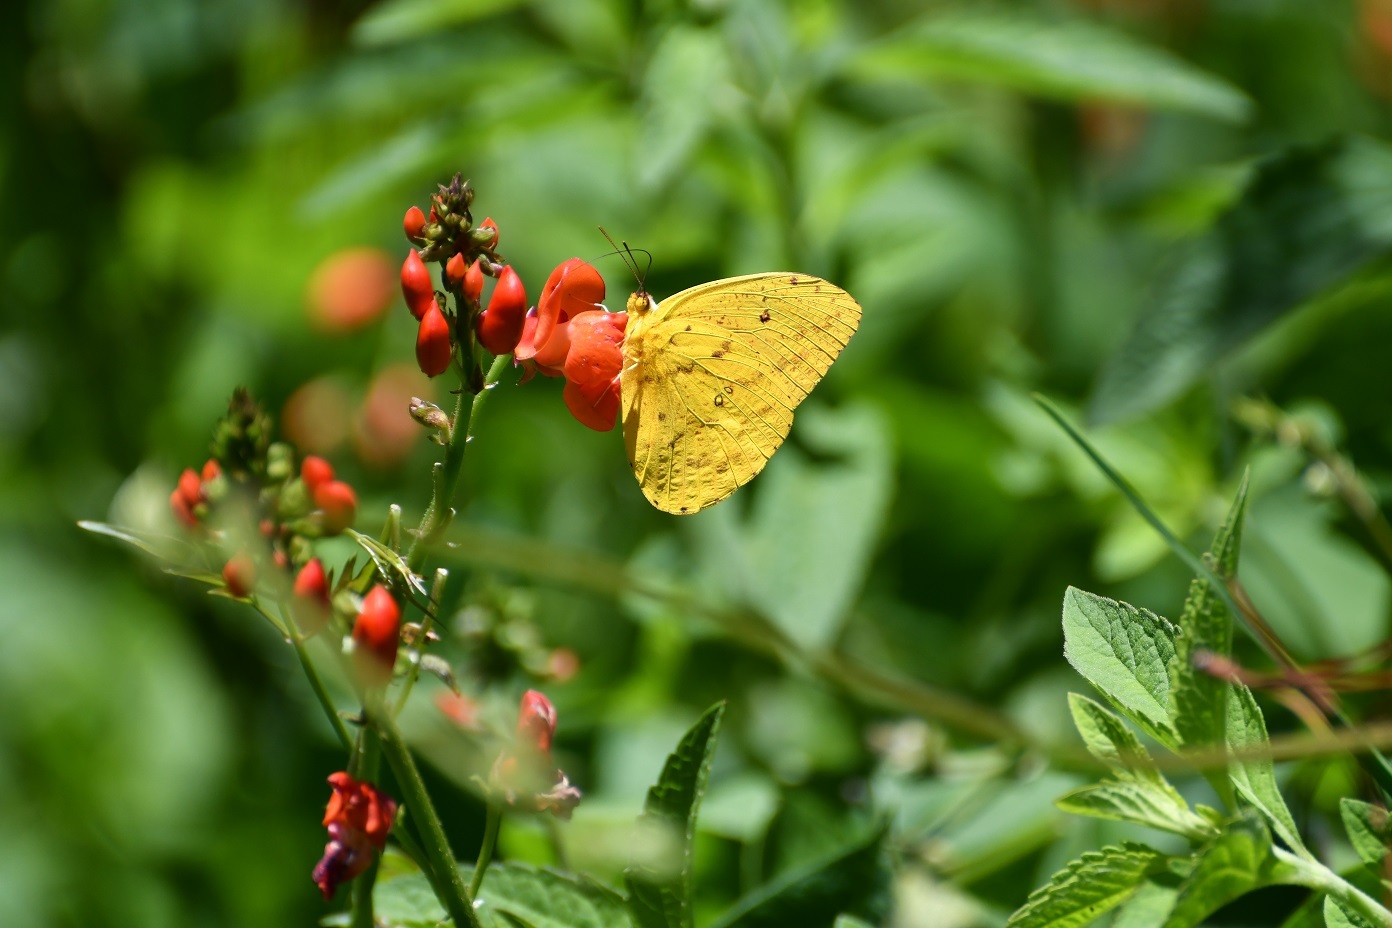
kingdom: Animalia
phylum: Arthropoda
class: Insecta
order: Lepidoptera
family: Pieridae
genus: Phoebis
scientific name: Phoebis argante
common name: Apricot sulphur
